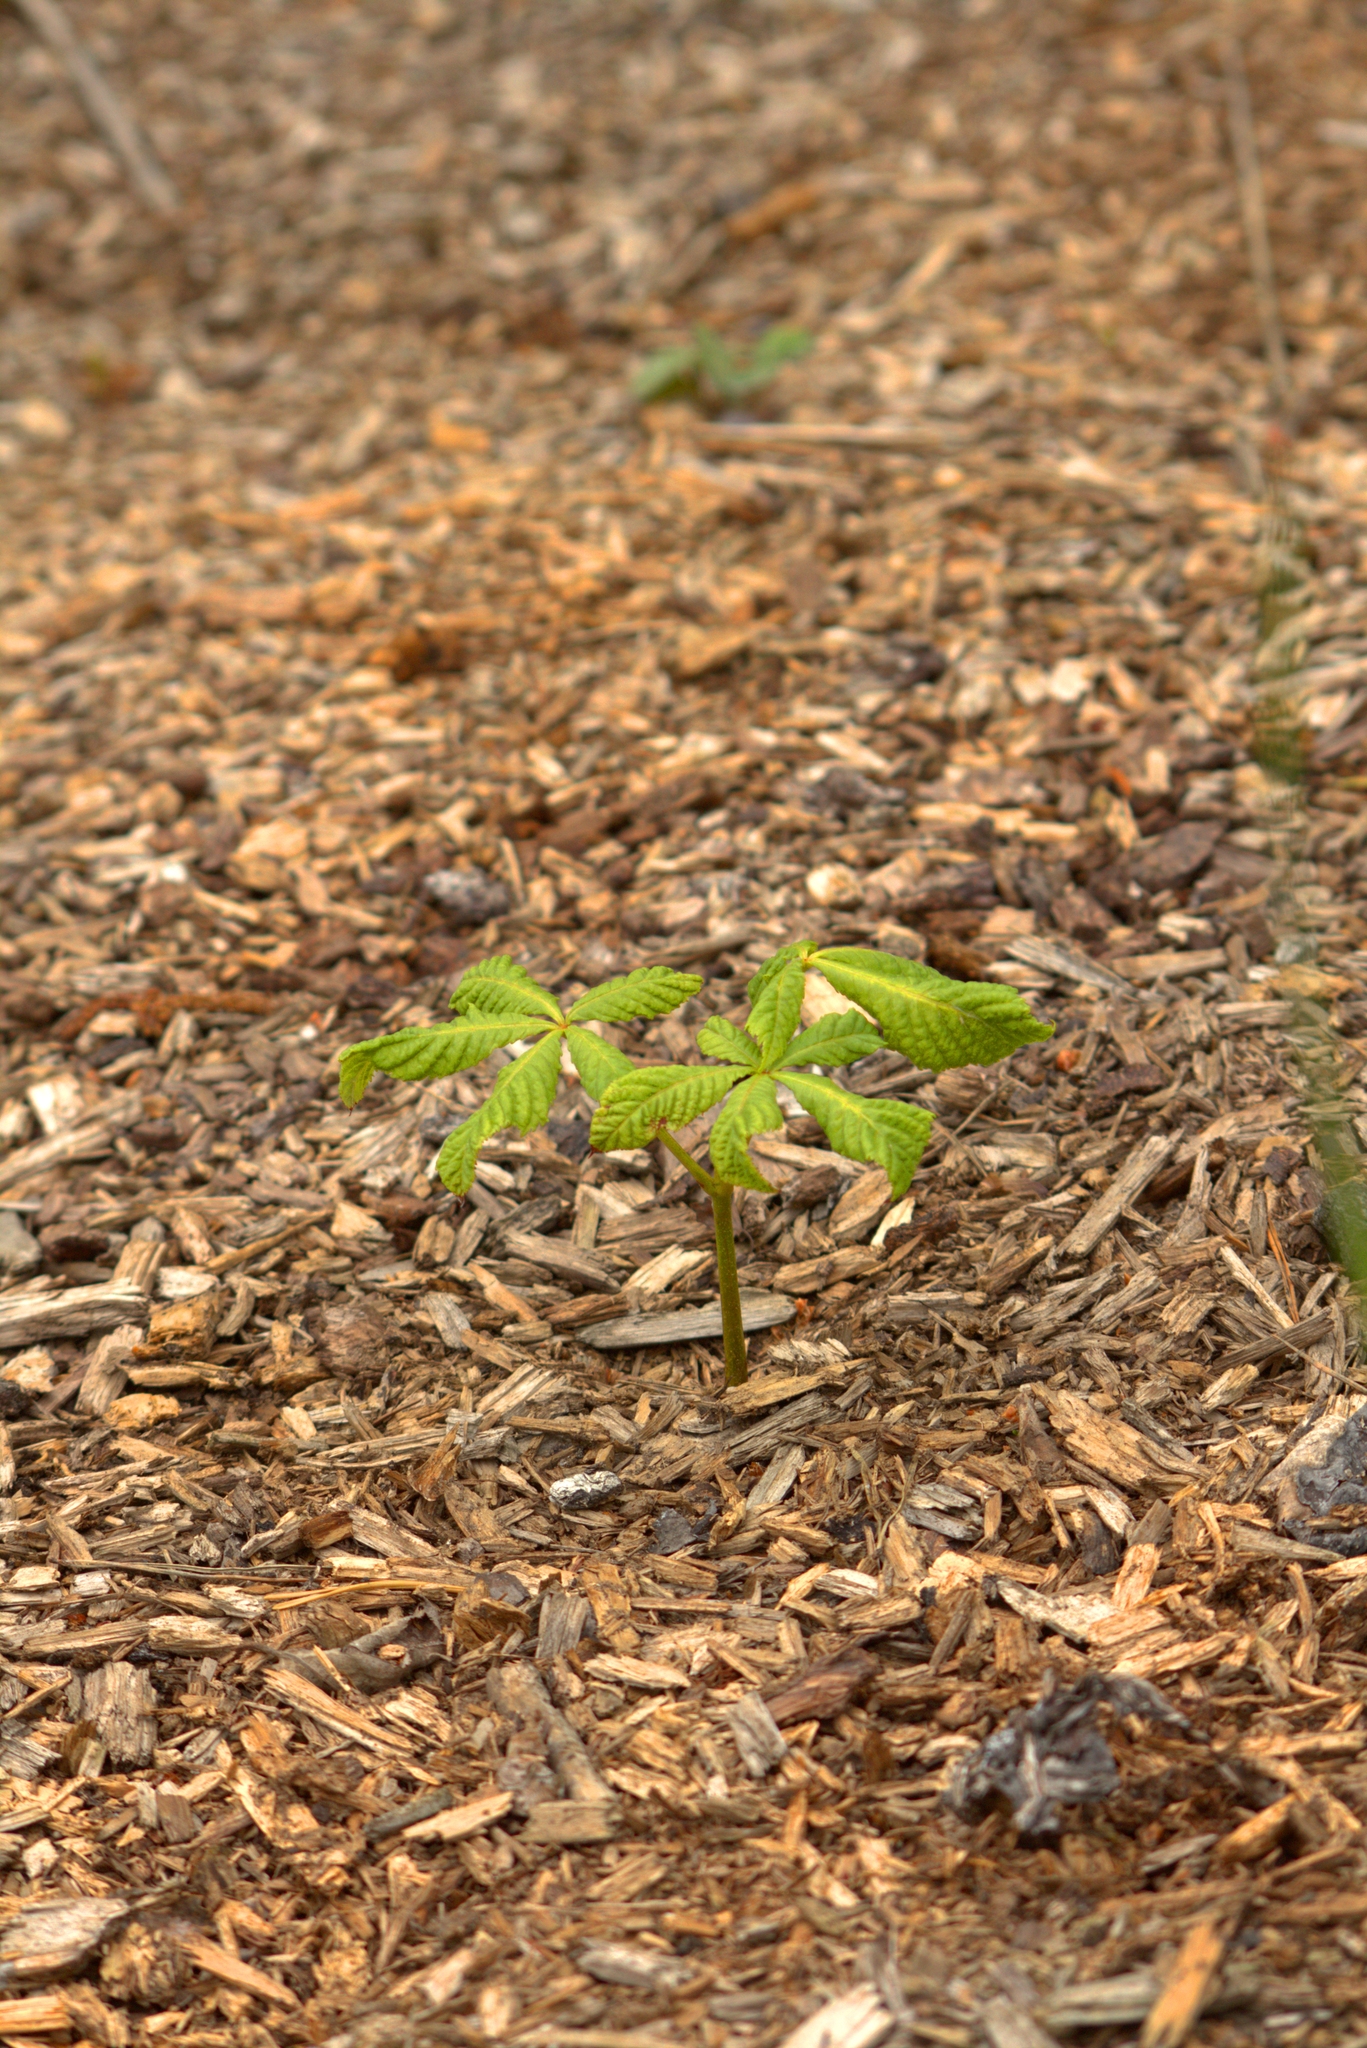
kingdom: Plantae
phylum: Tracheophyta
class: Magnoliopsida
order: Sapindales
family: Sapindaceae
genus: Aesculus
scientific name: Aesculus hippocastanum
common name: Horse-chestnut
